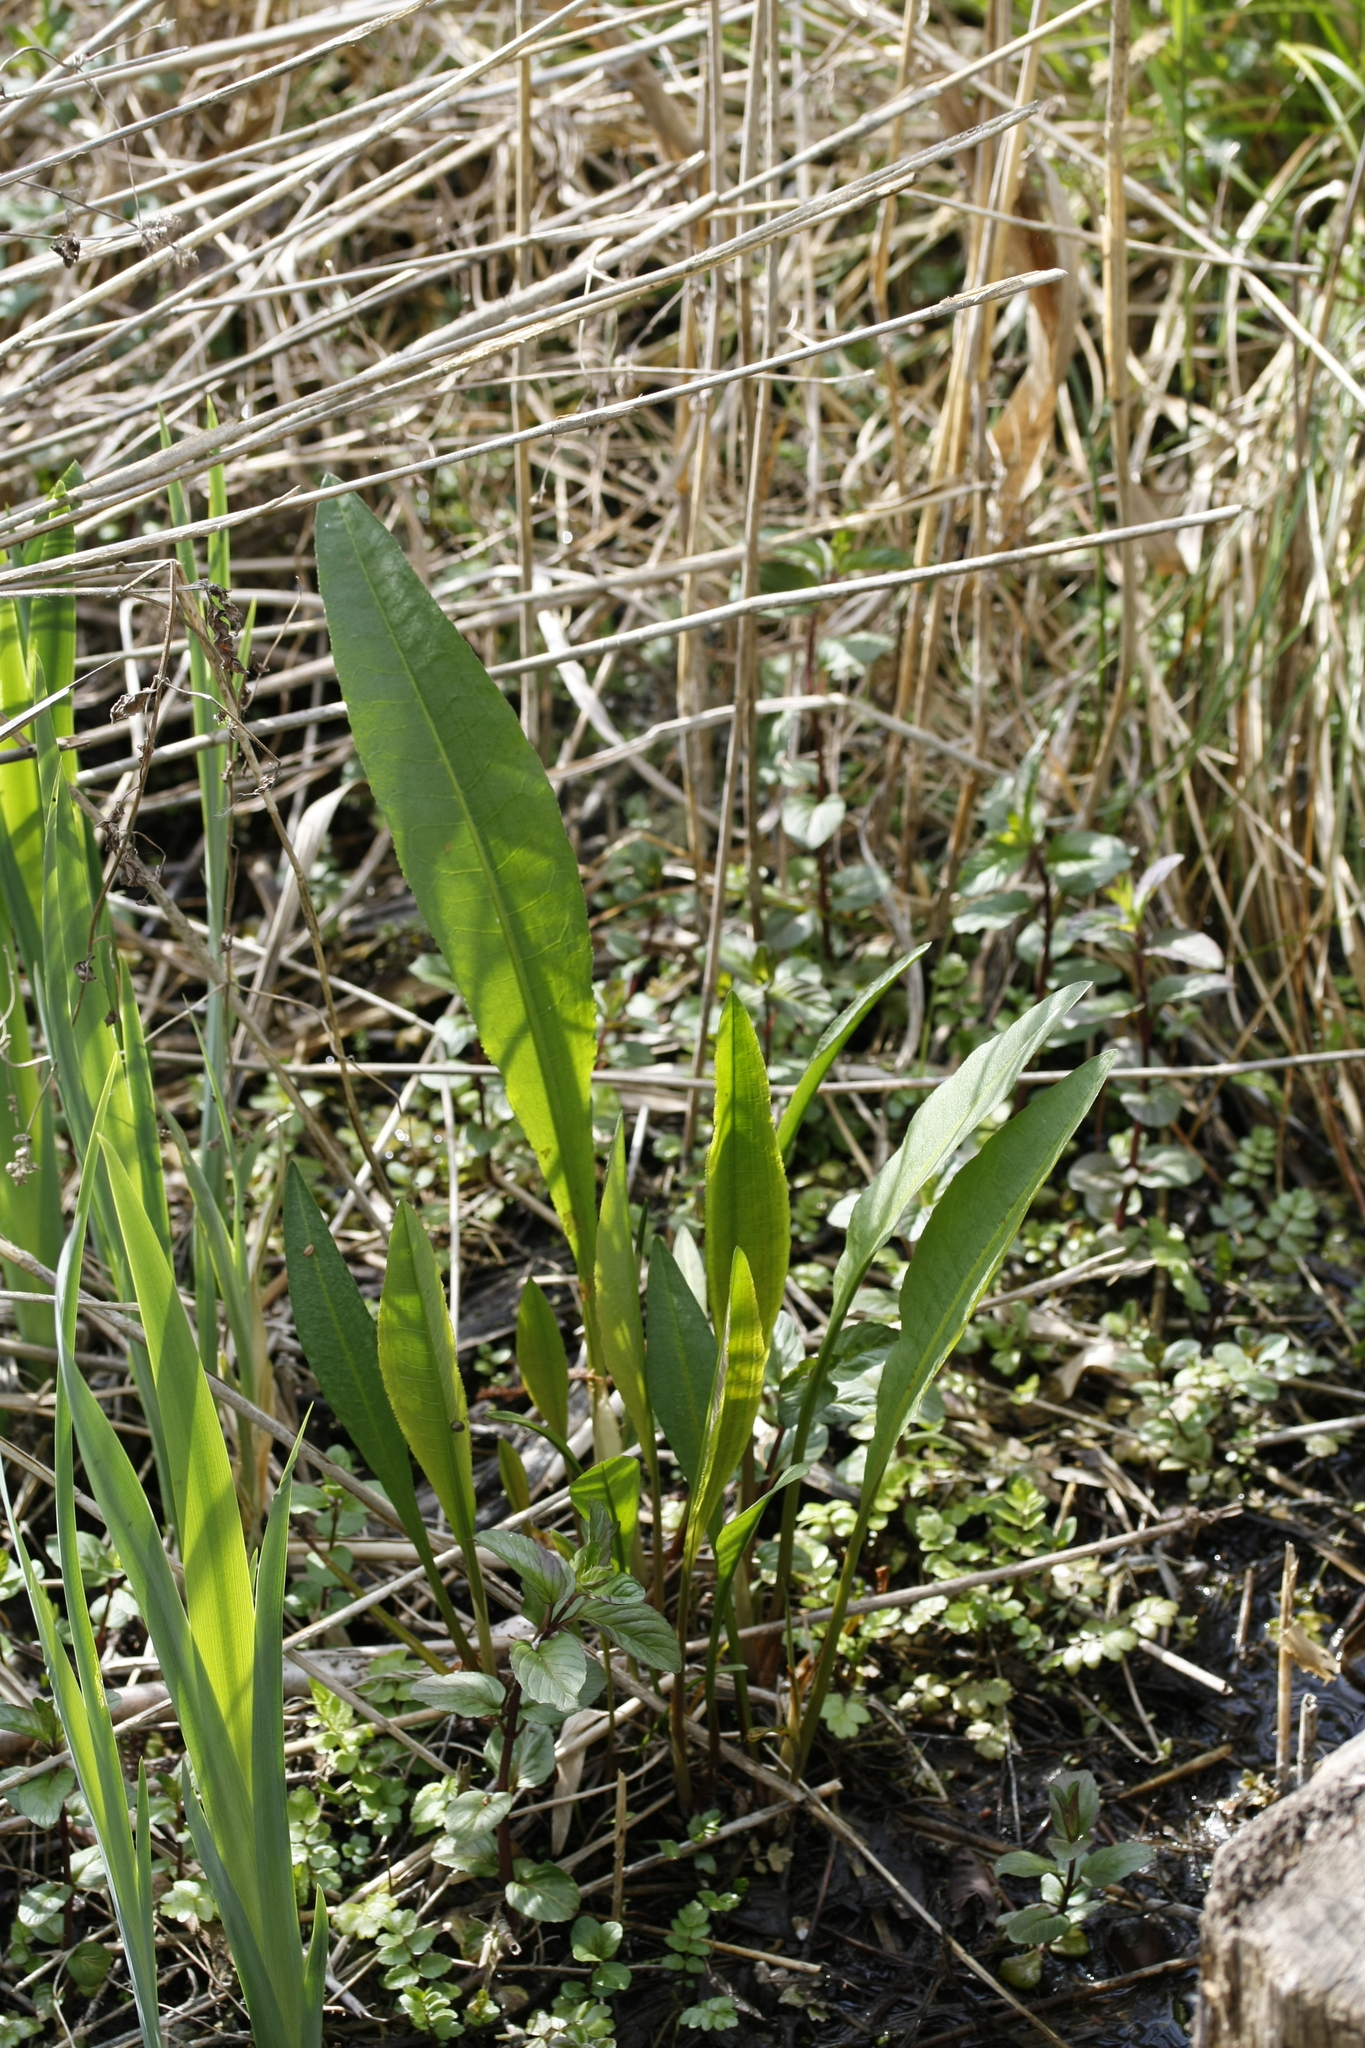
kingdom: Plantae
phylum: Tracheophyta
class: Magnoliopsida
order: Caryophyllales
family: Polygonaceae
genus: Rumex
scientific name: Rumex hydrolapathum
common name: Water dock
